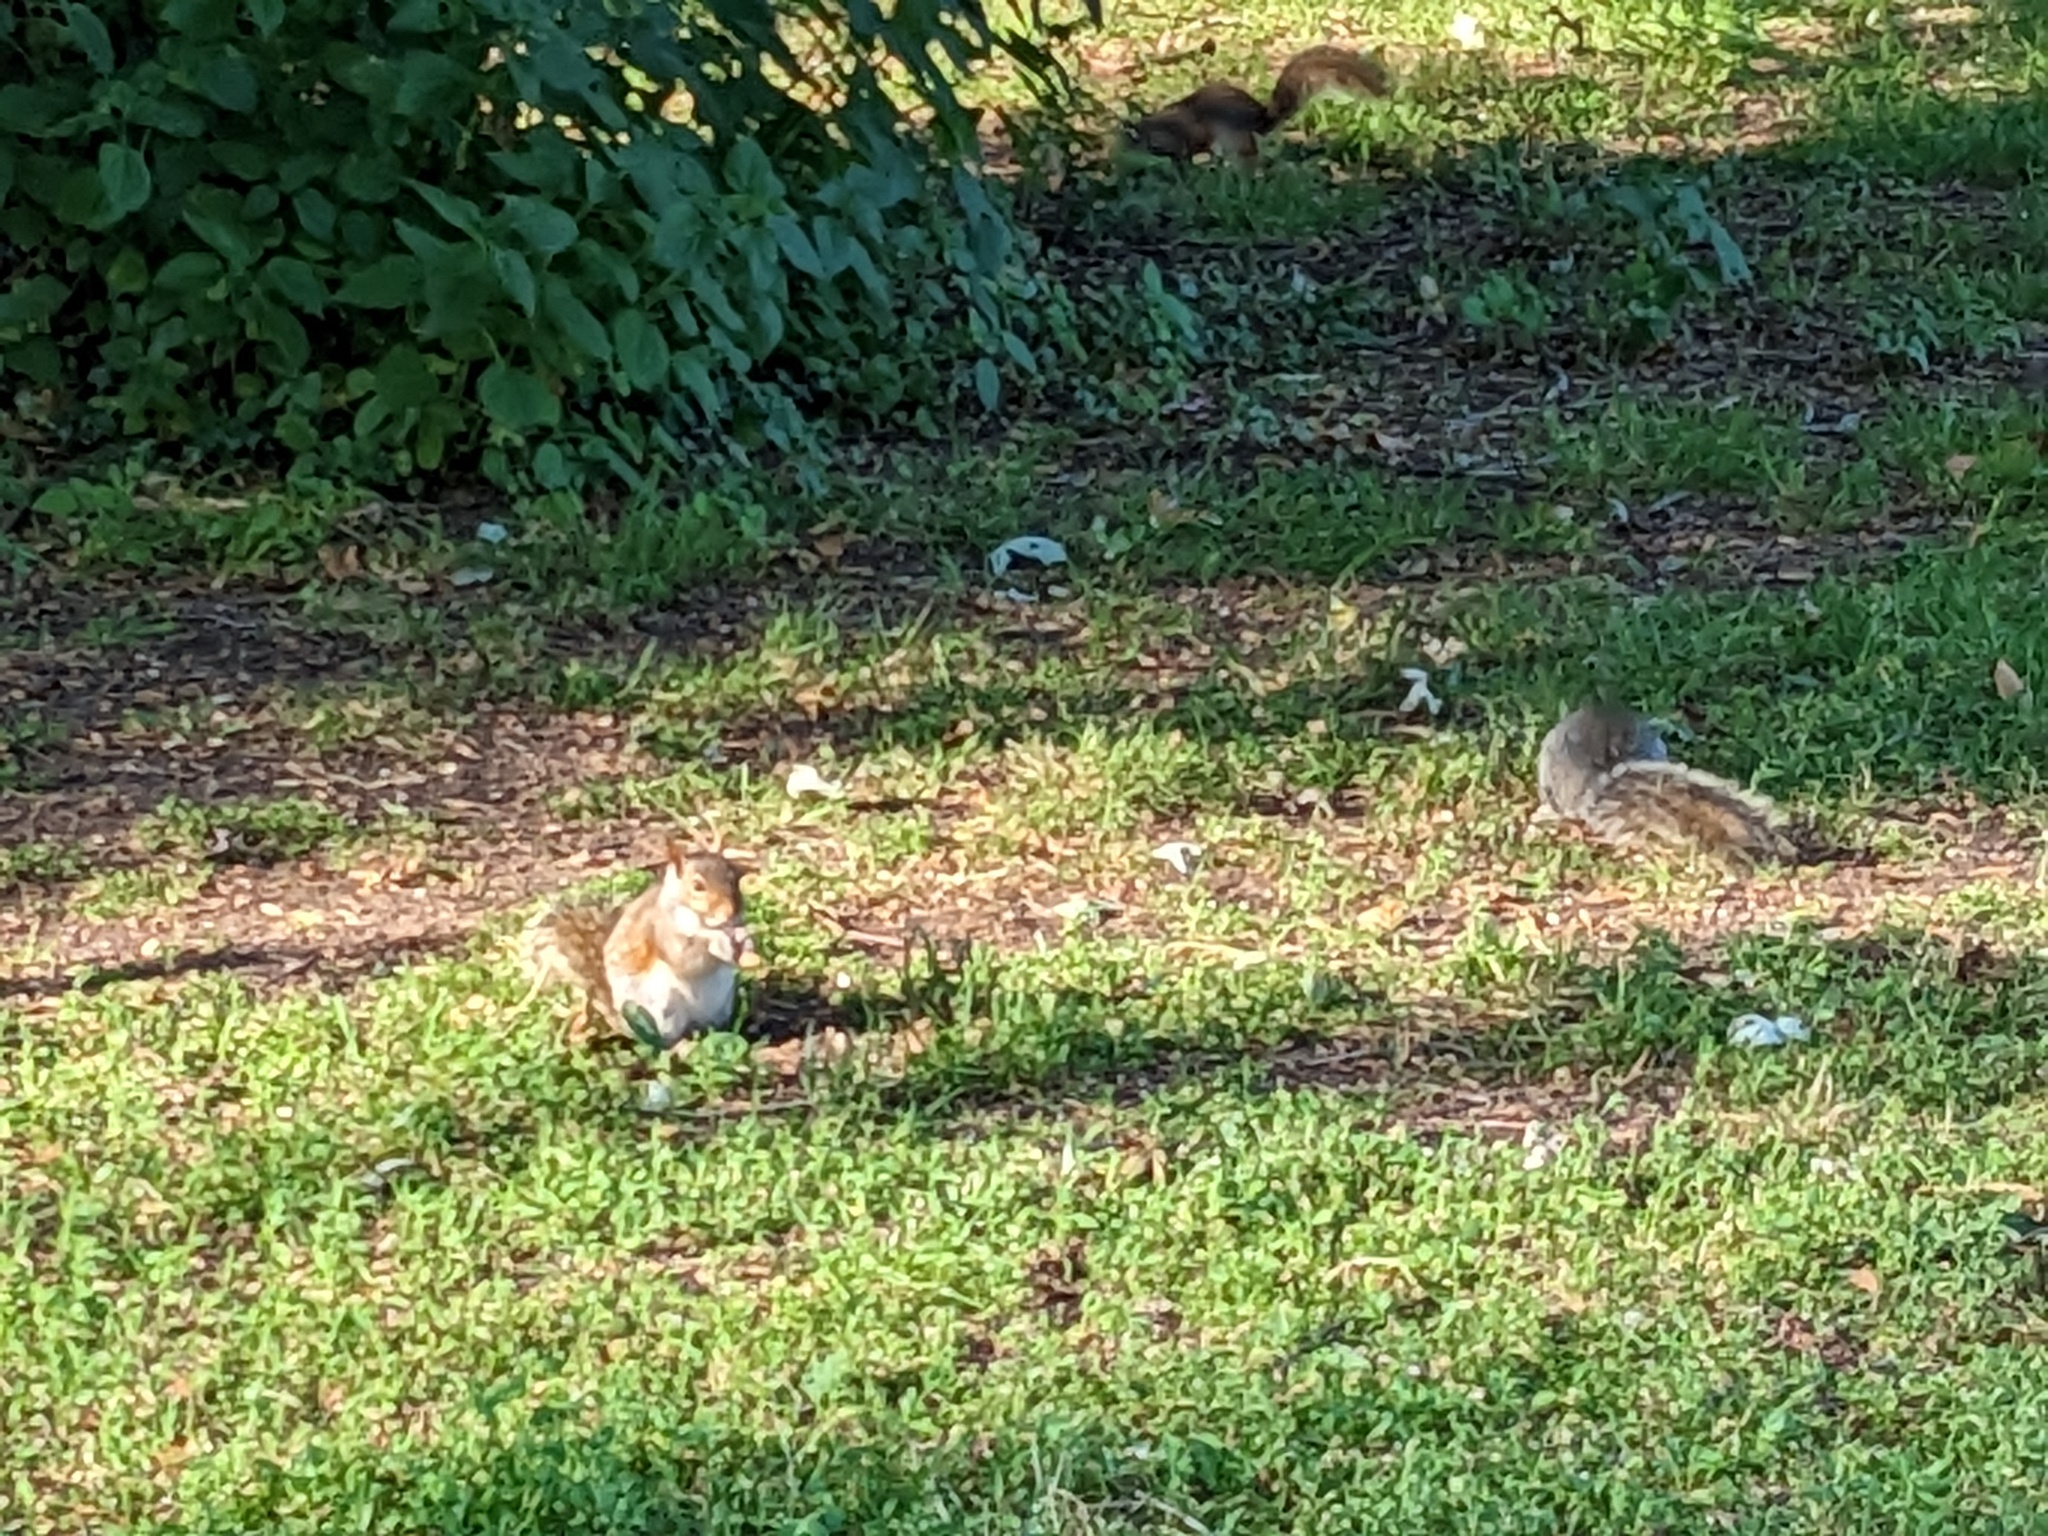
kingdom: Animalia
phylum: Chordata
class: Mammalia
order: Rodentia
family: Sciuridae
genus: Sciurus
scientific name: Sciurus carolinensis
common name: Eastern gray squirrel
